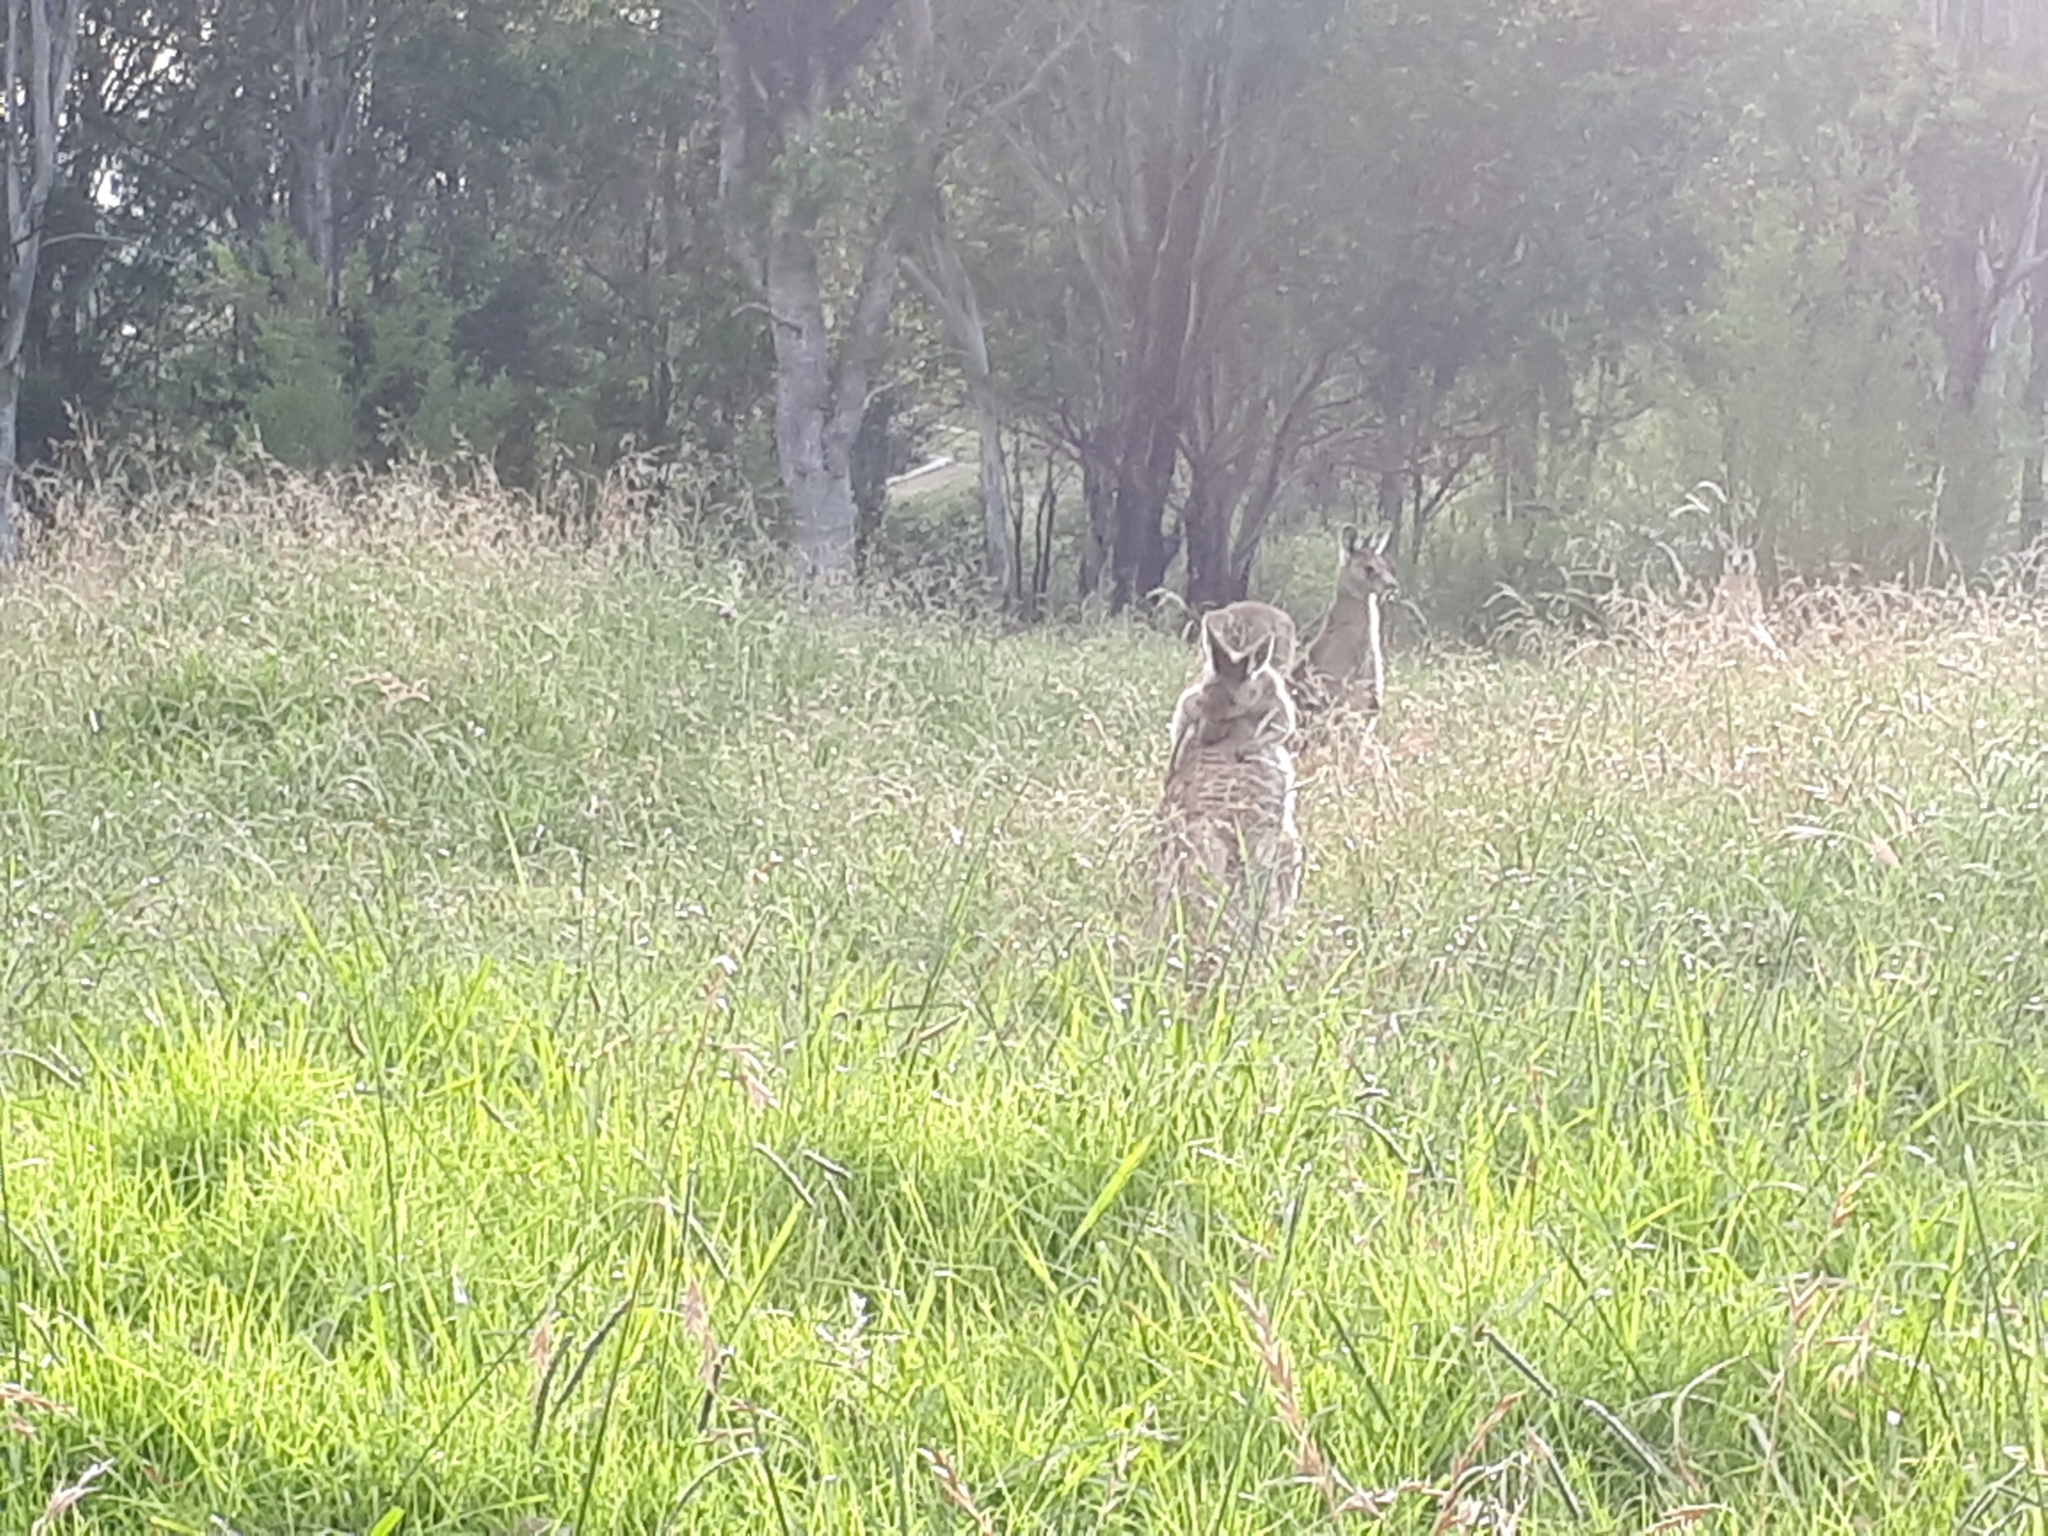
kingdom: Animalia
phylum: Chordata
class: Mammalia
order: Diprotodontia
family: Macropodidae
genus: Macropus
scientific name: Macropus giganteus
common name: Eastern grey kangaroo
